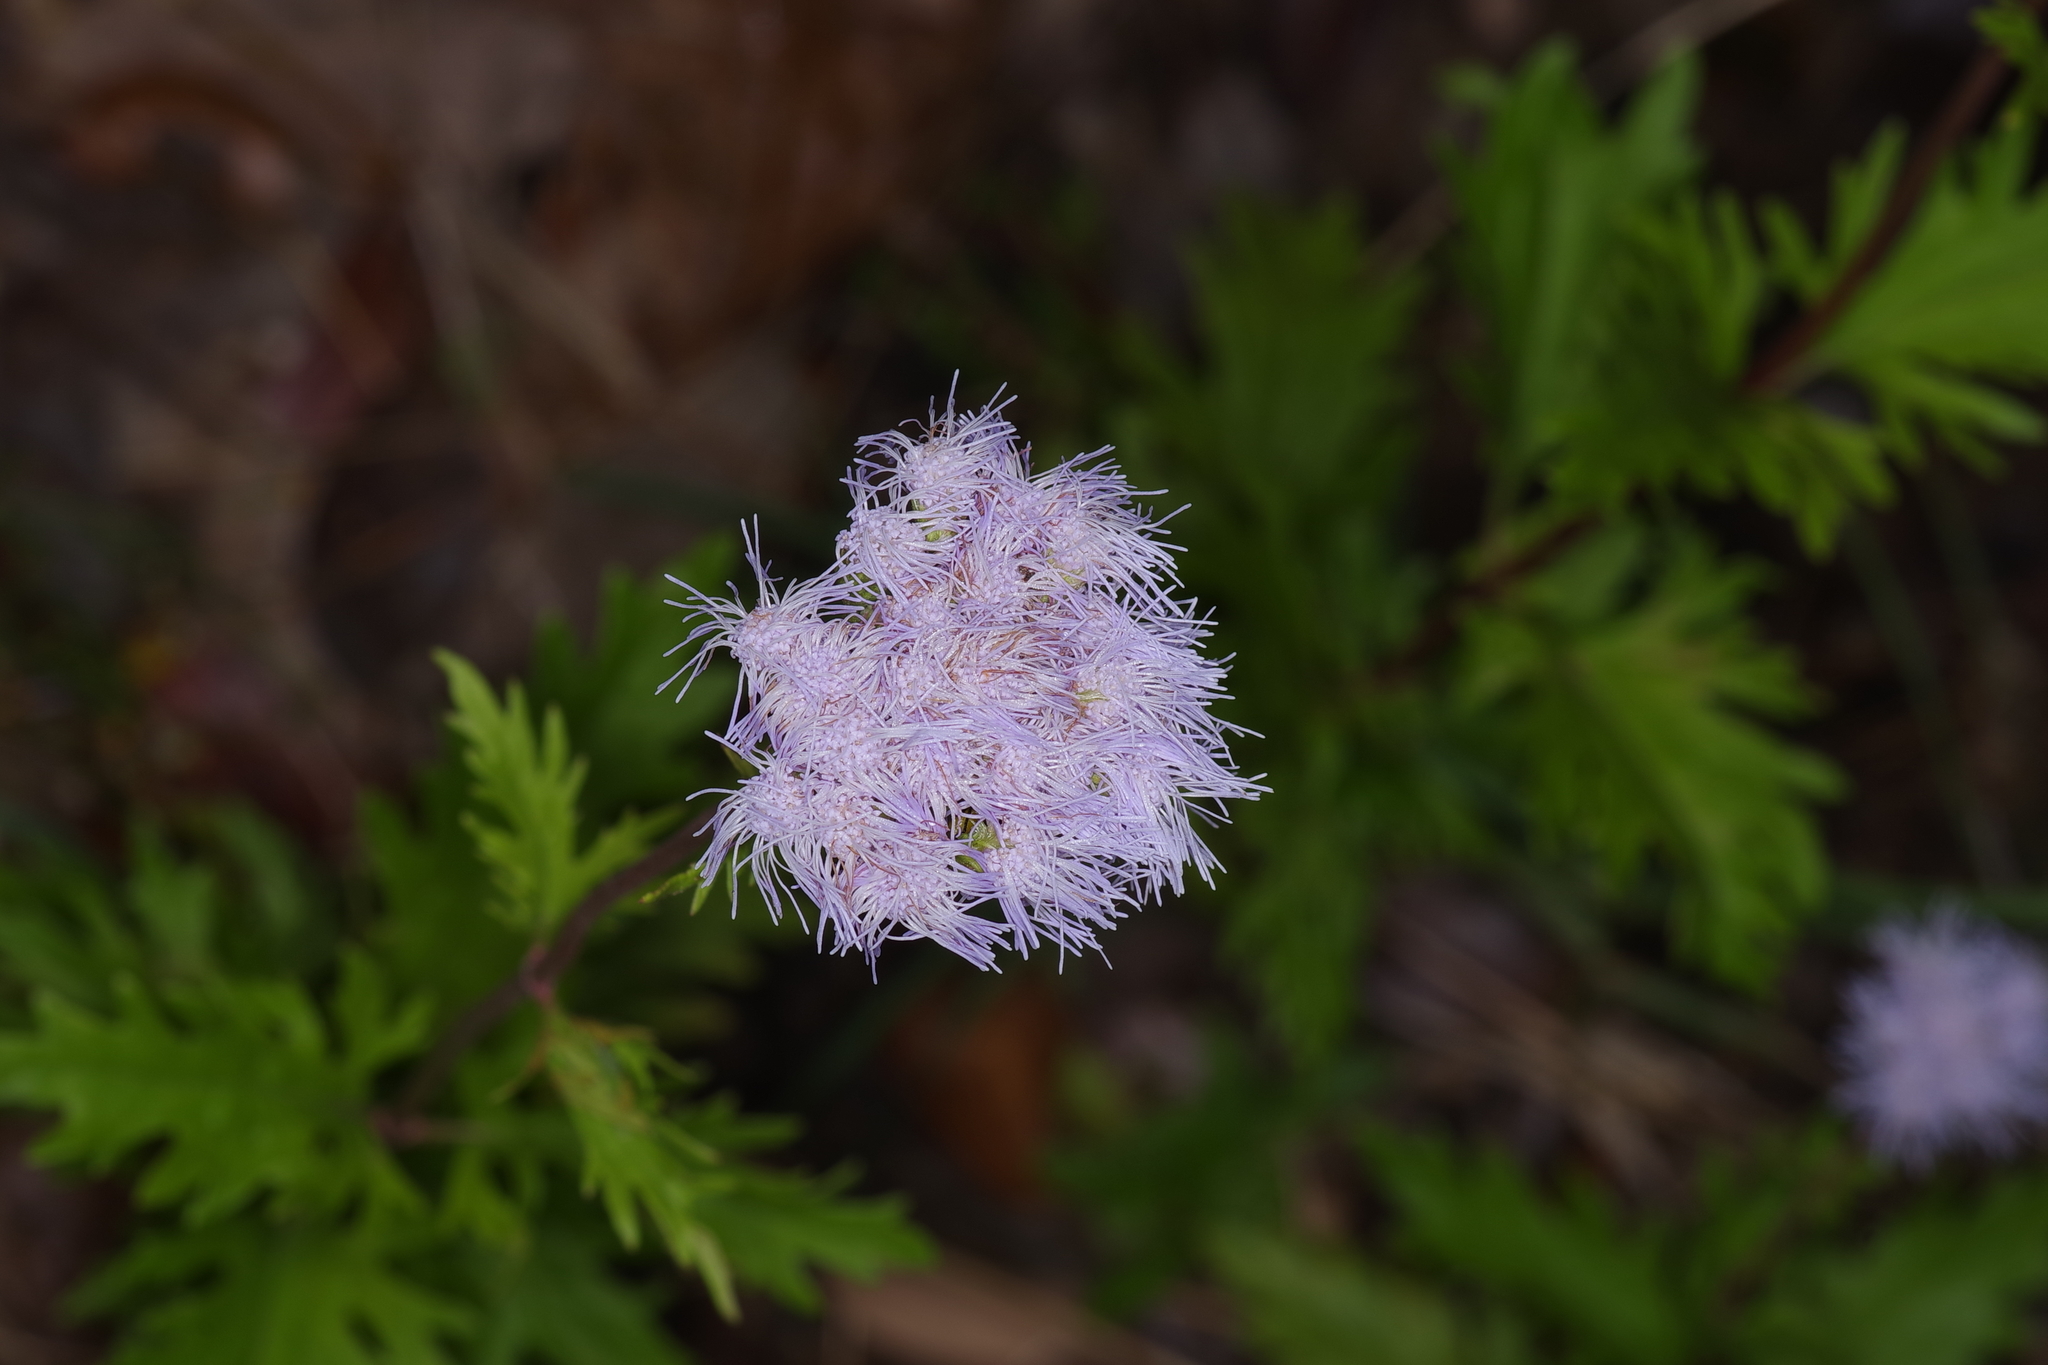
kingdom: Plantae
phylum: Tracheophyta
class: Magnoliopsida
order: Asterales
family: Asteraceae
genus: Conoclinium
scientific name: Conoclinium dissectum
